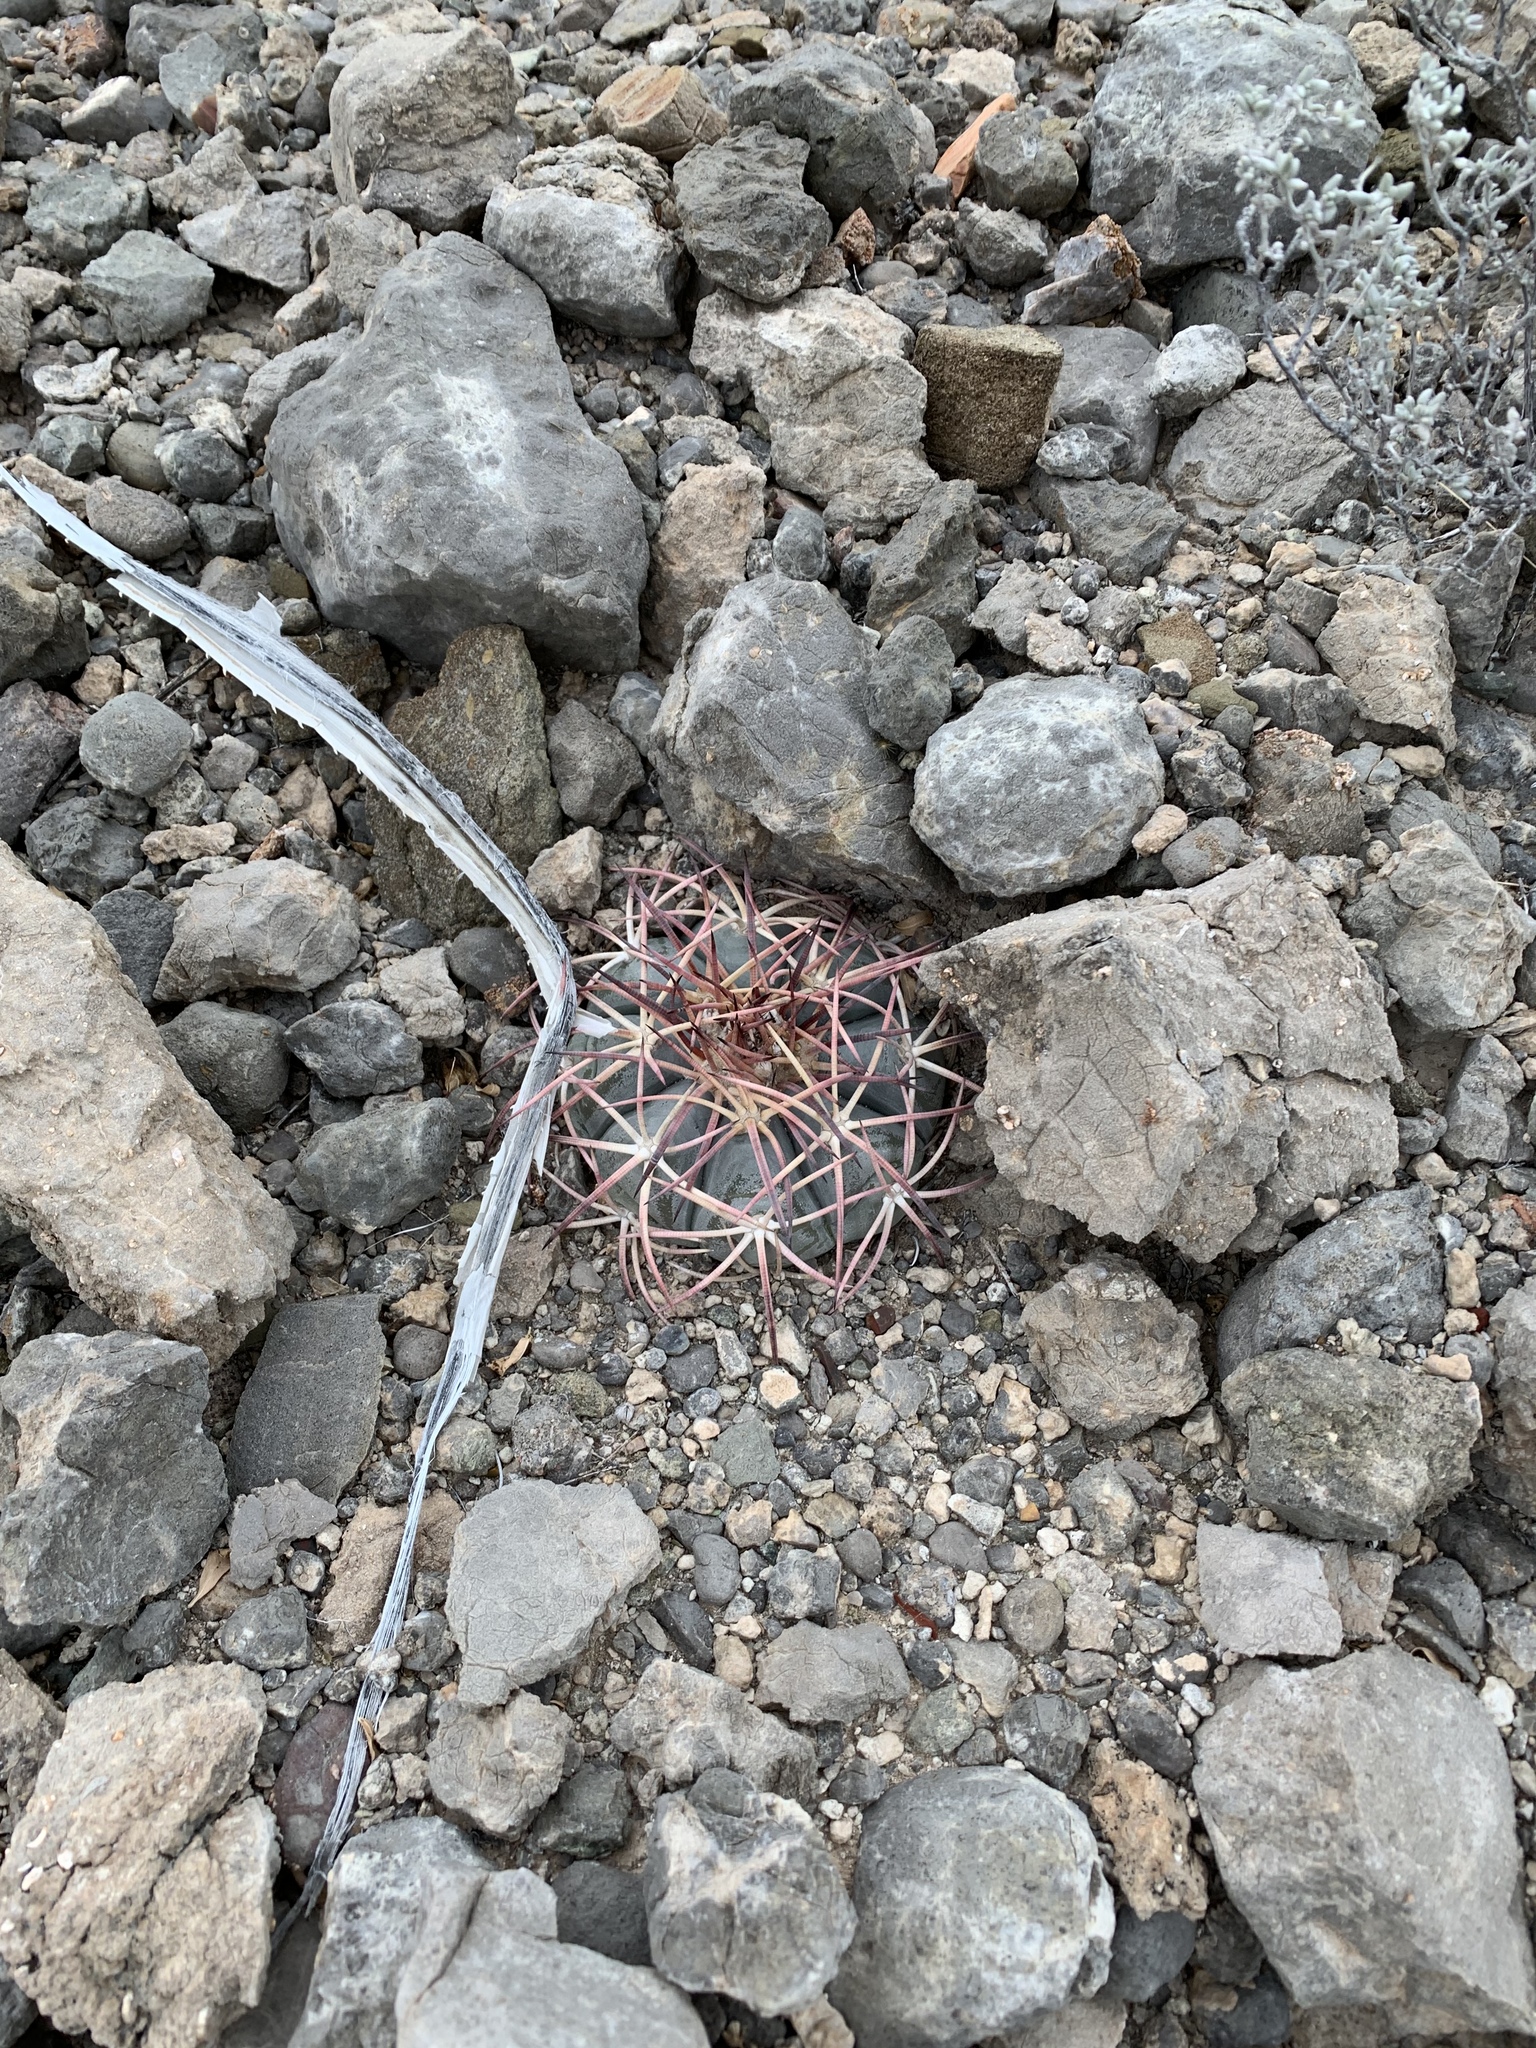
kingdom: Plantae
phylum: Tracheophyta
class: Magnoliopsida
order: Caryophyllales
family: Cactaceae
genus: Echinocactus
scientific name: Echinocactus horizonthalonius
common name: Devilshead
